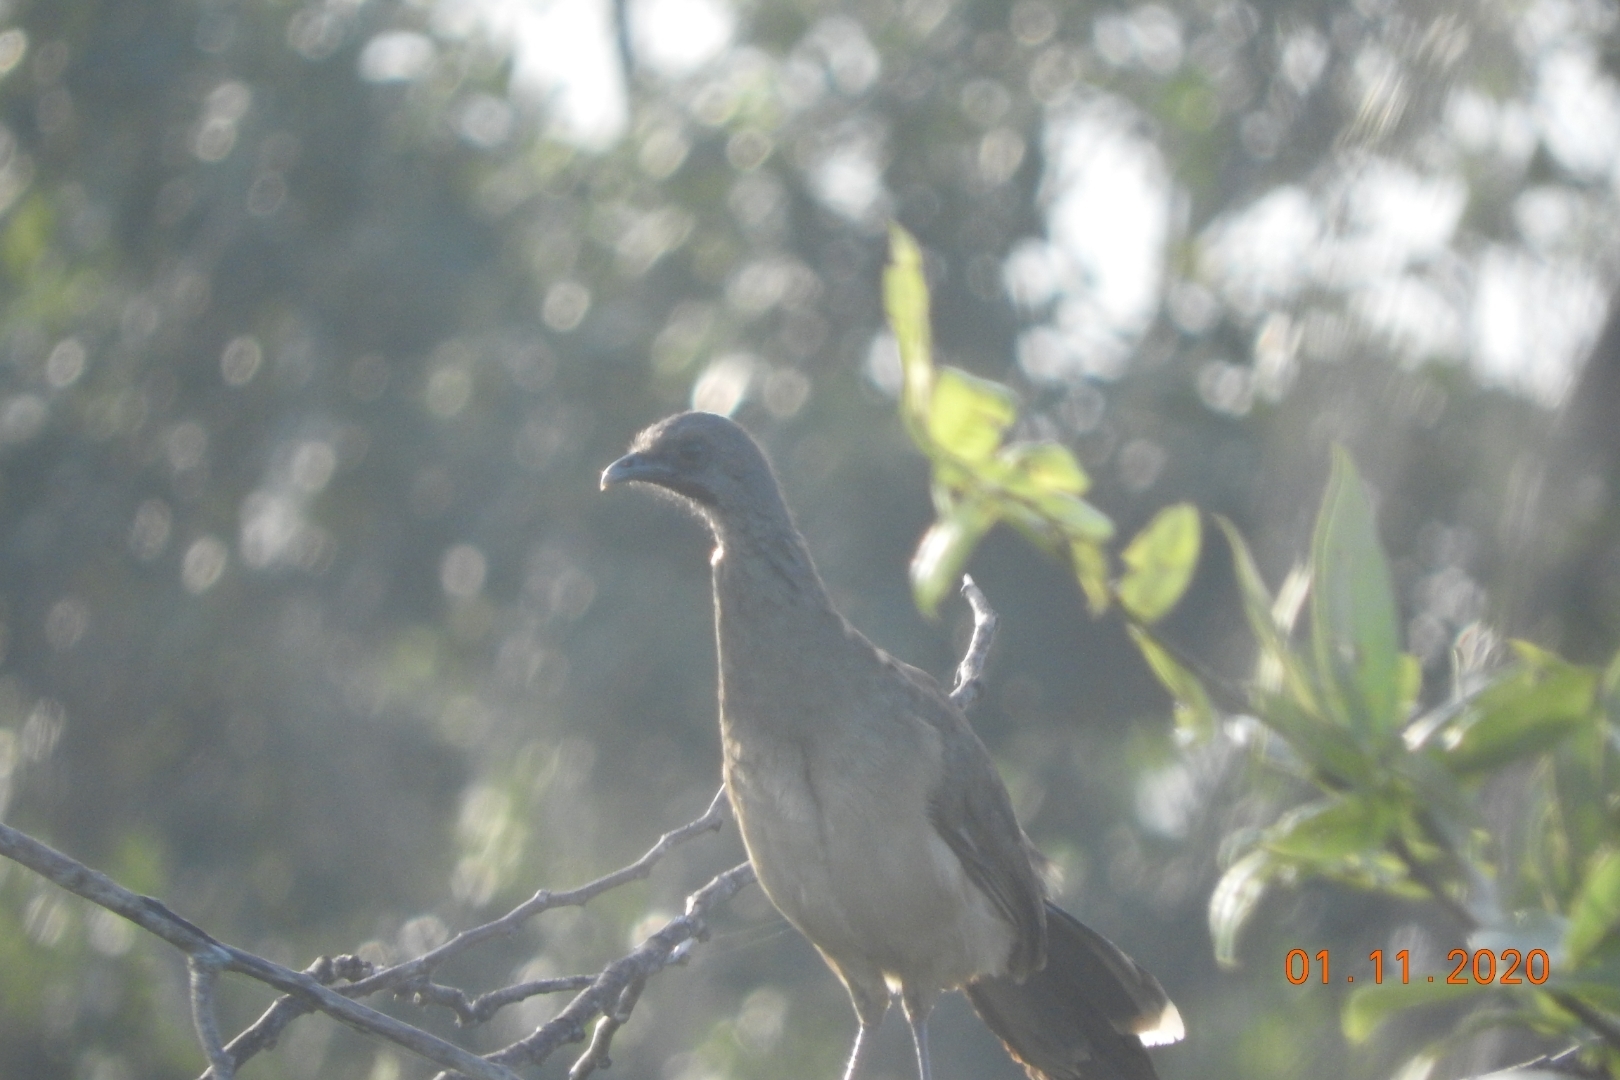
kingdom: Animalia
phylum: Chordata
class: Aves
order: Galliformes
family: Cracidae
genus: Ortalis
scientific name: Ortalis vetula
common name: Plain chachalaca
